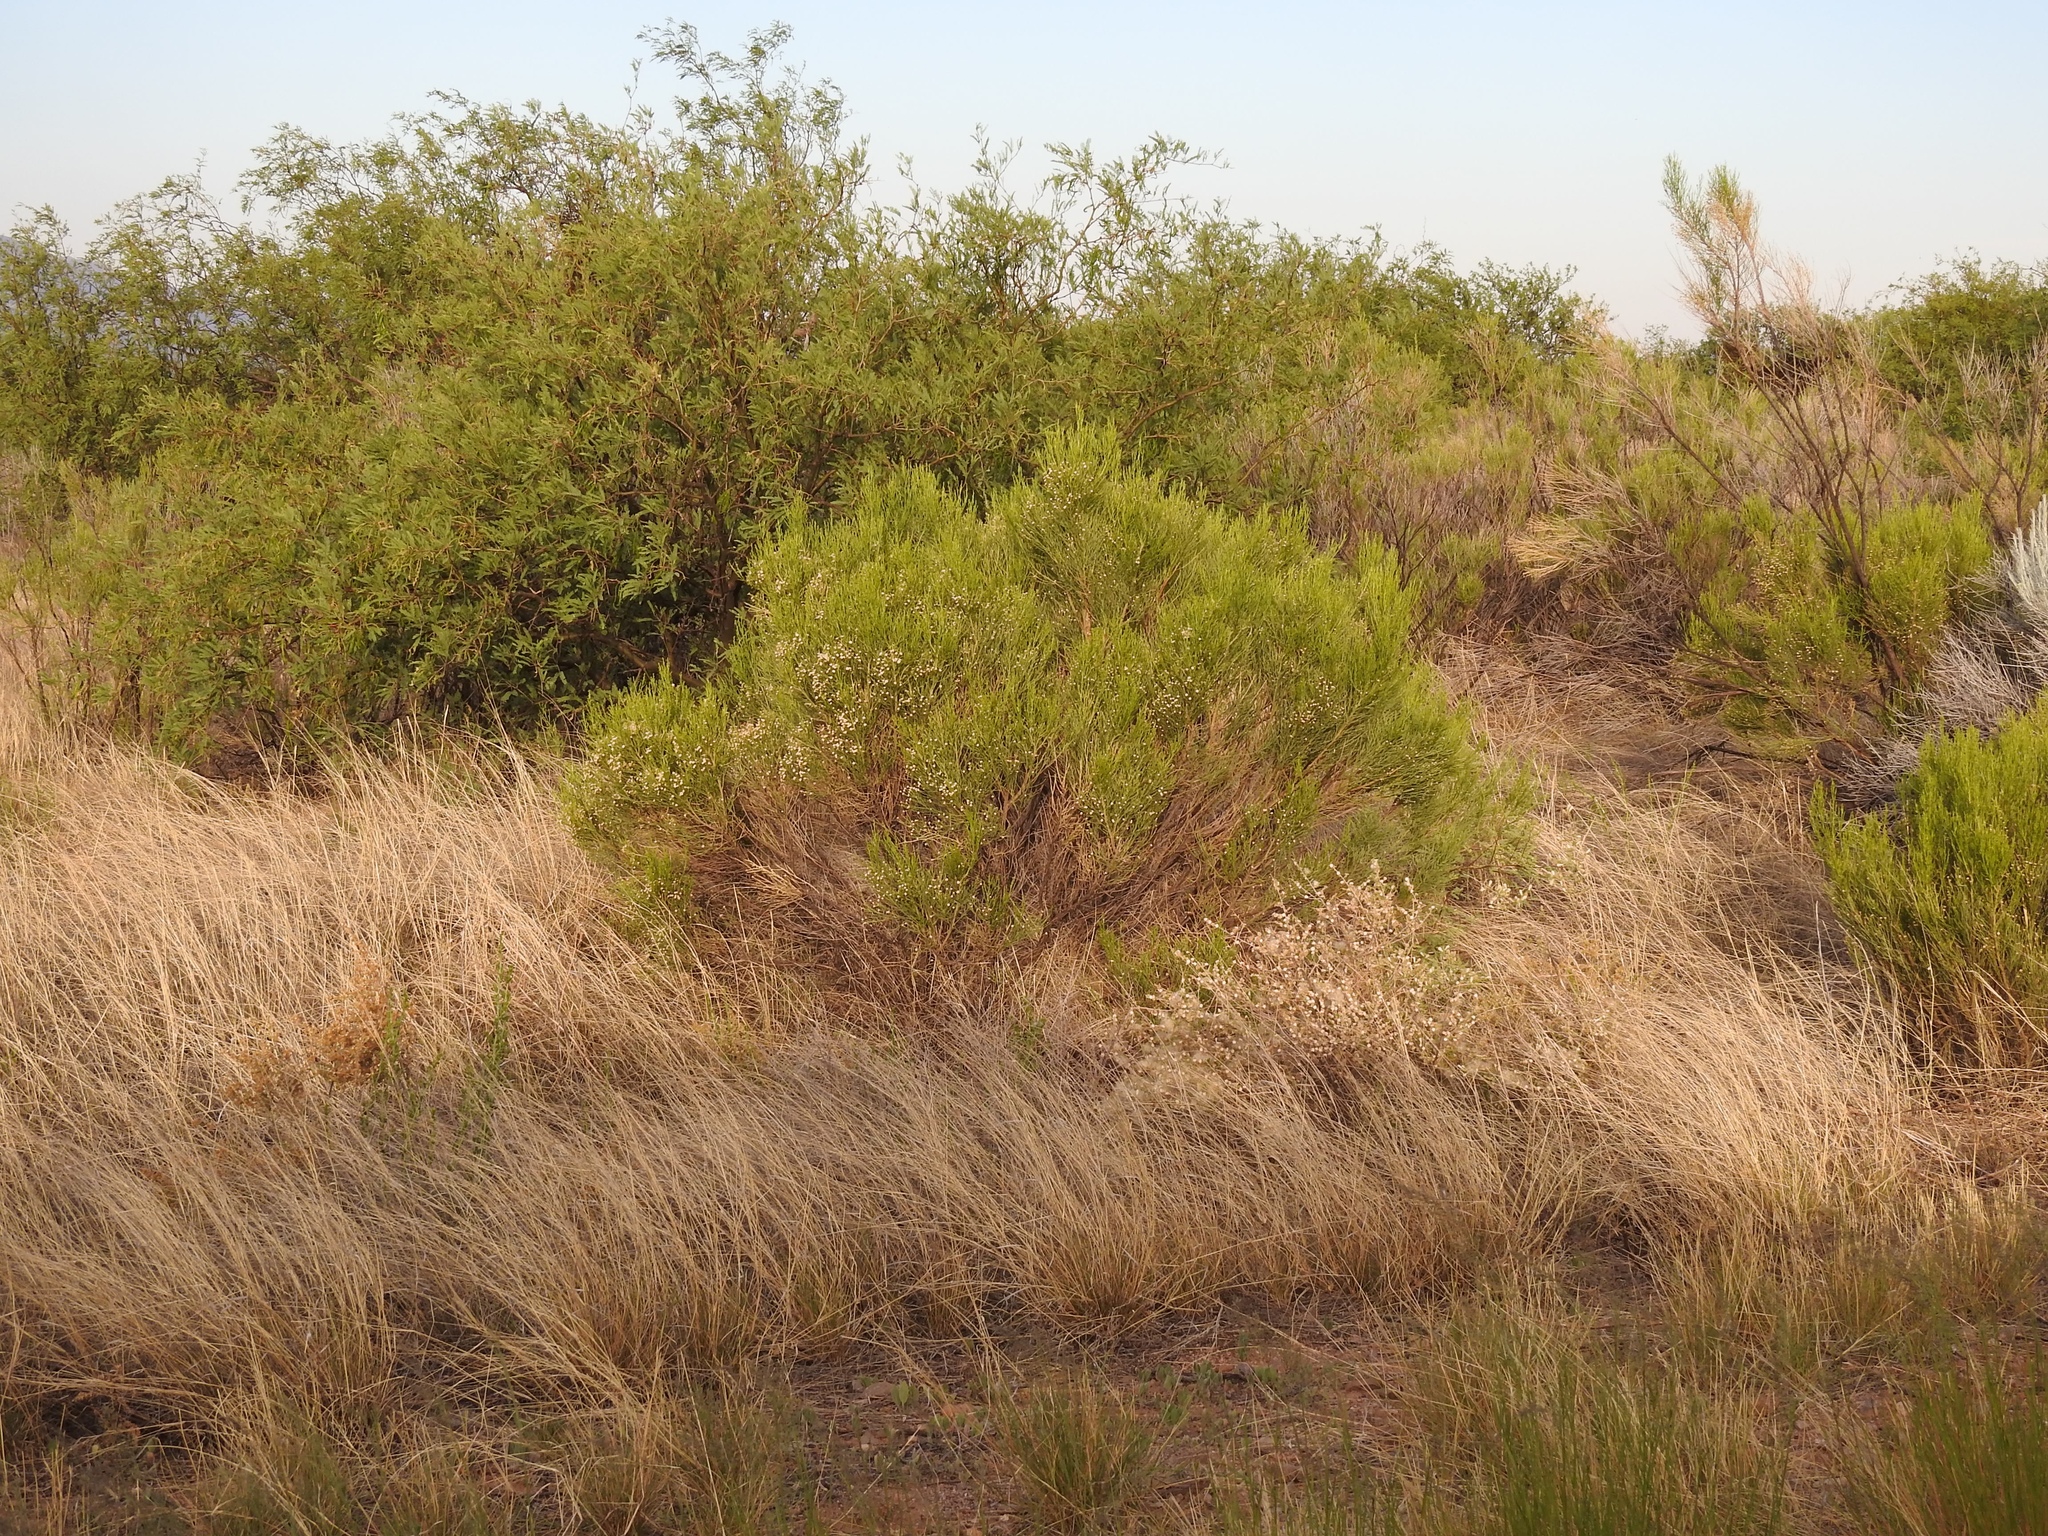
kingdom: Plantae
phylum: Tracheophyta
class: Magnoliopsida
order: Asterales
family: Asteraceae
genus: Baccharis
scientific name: Baccharis sarothroides
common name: Desert-broom
